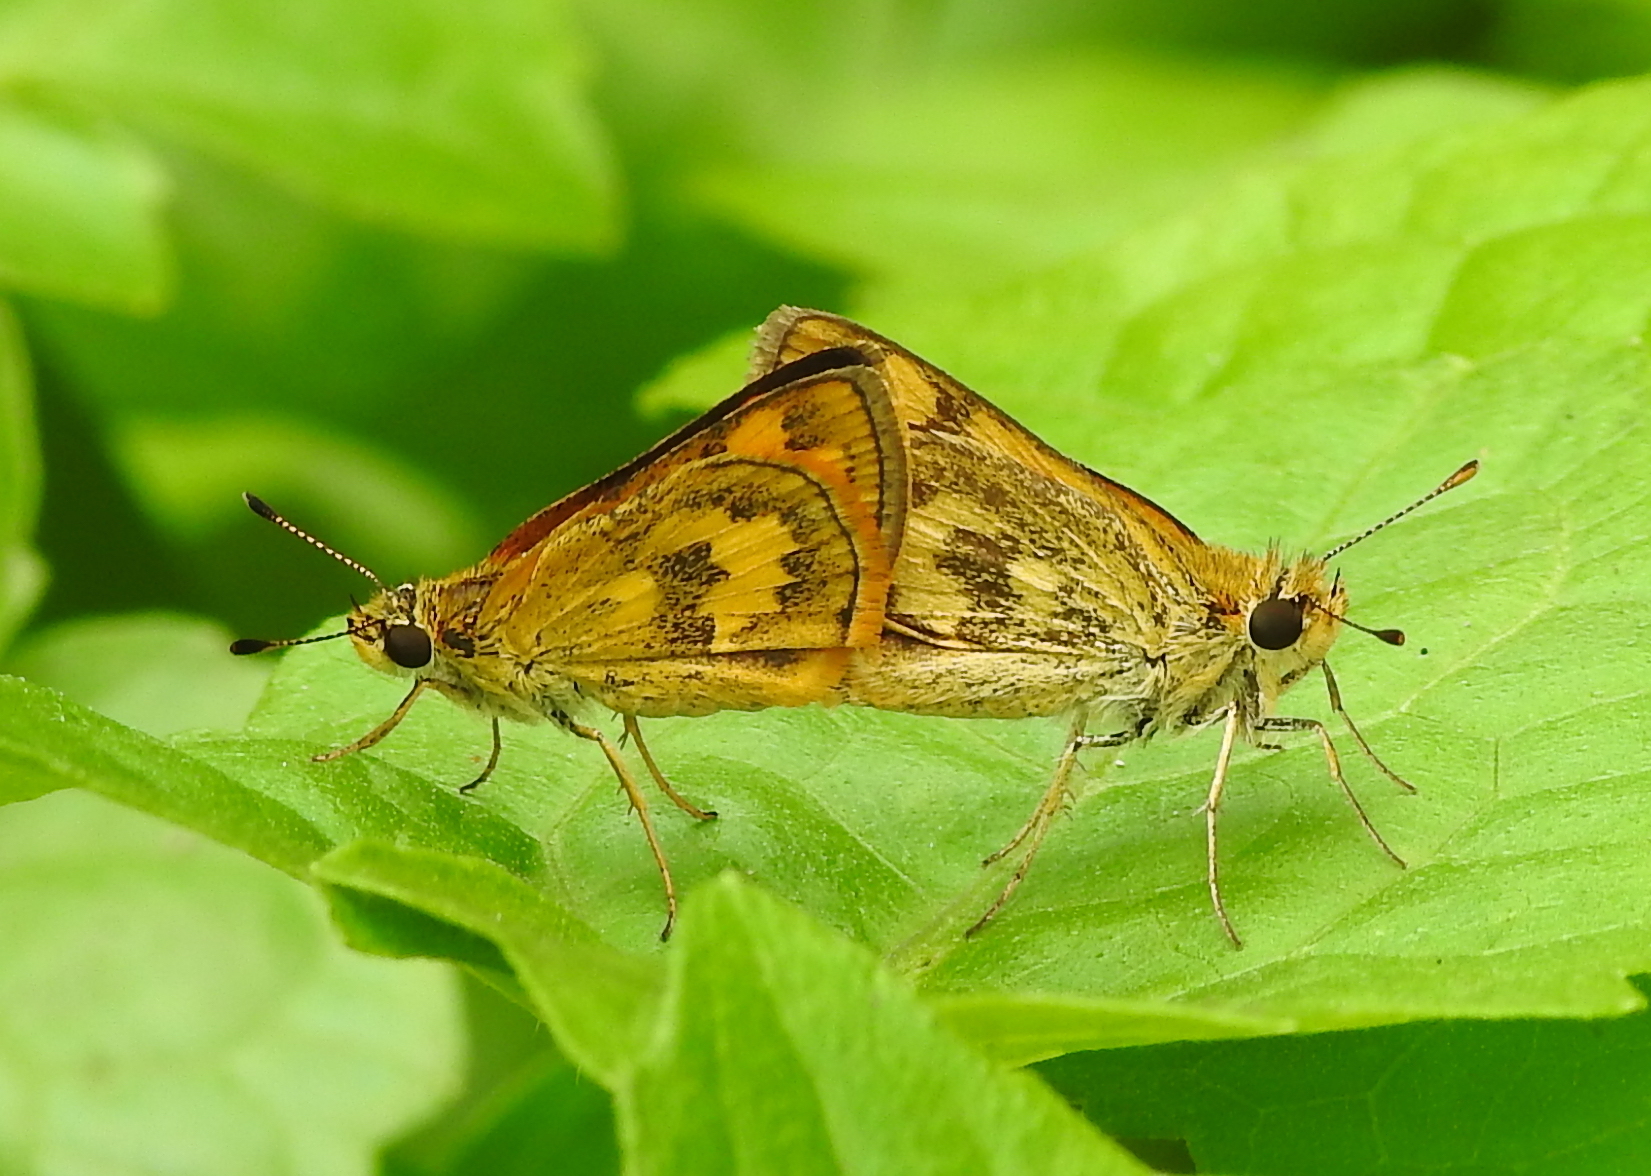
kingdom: Animalia
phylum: Arthropoda
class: Insecta
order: Lepidoptera
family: Hesperiidae
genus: Taractrocera
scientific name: Taractrocera archias
